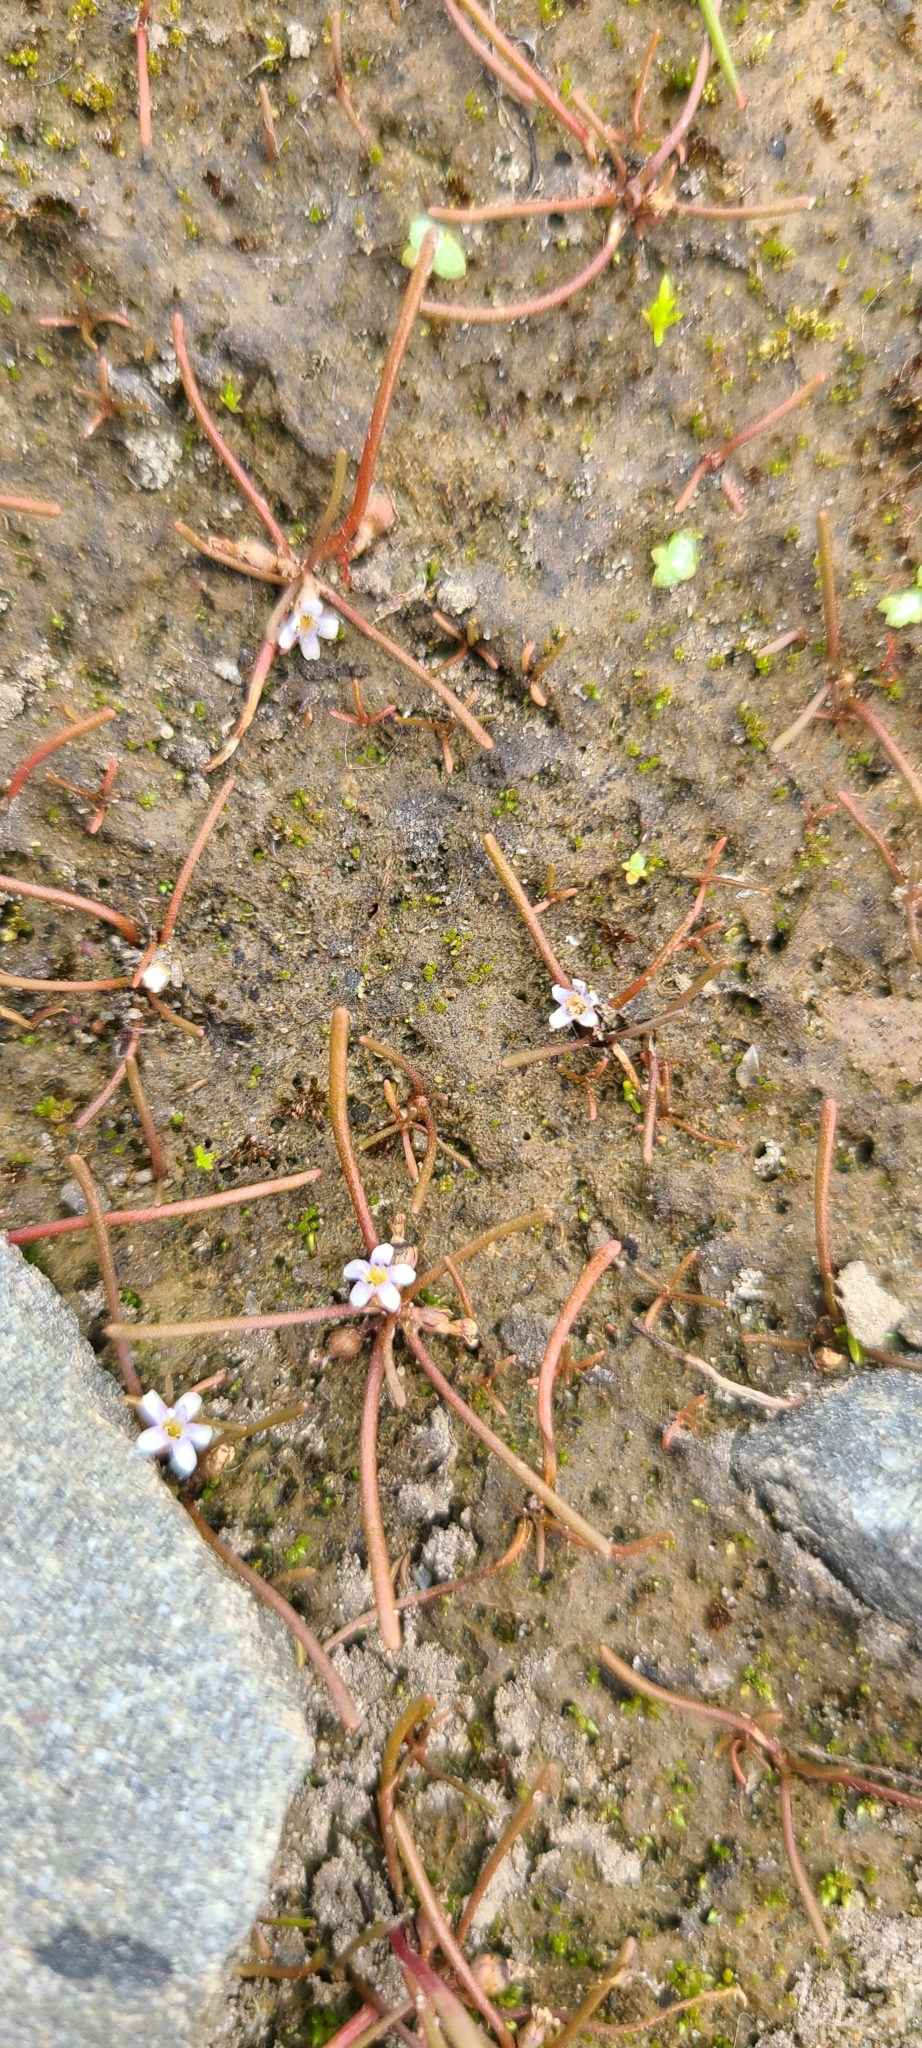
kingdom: Plantae
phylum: Tracheophyta
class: Magnoliopsida
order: Lamiales
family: Scrophulariaceae
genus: Limosella
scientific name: Limosella australis
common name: Welsh mudwort
